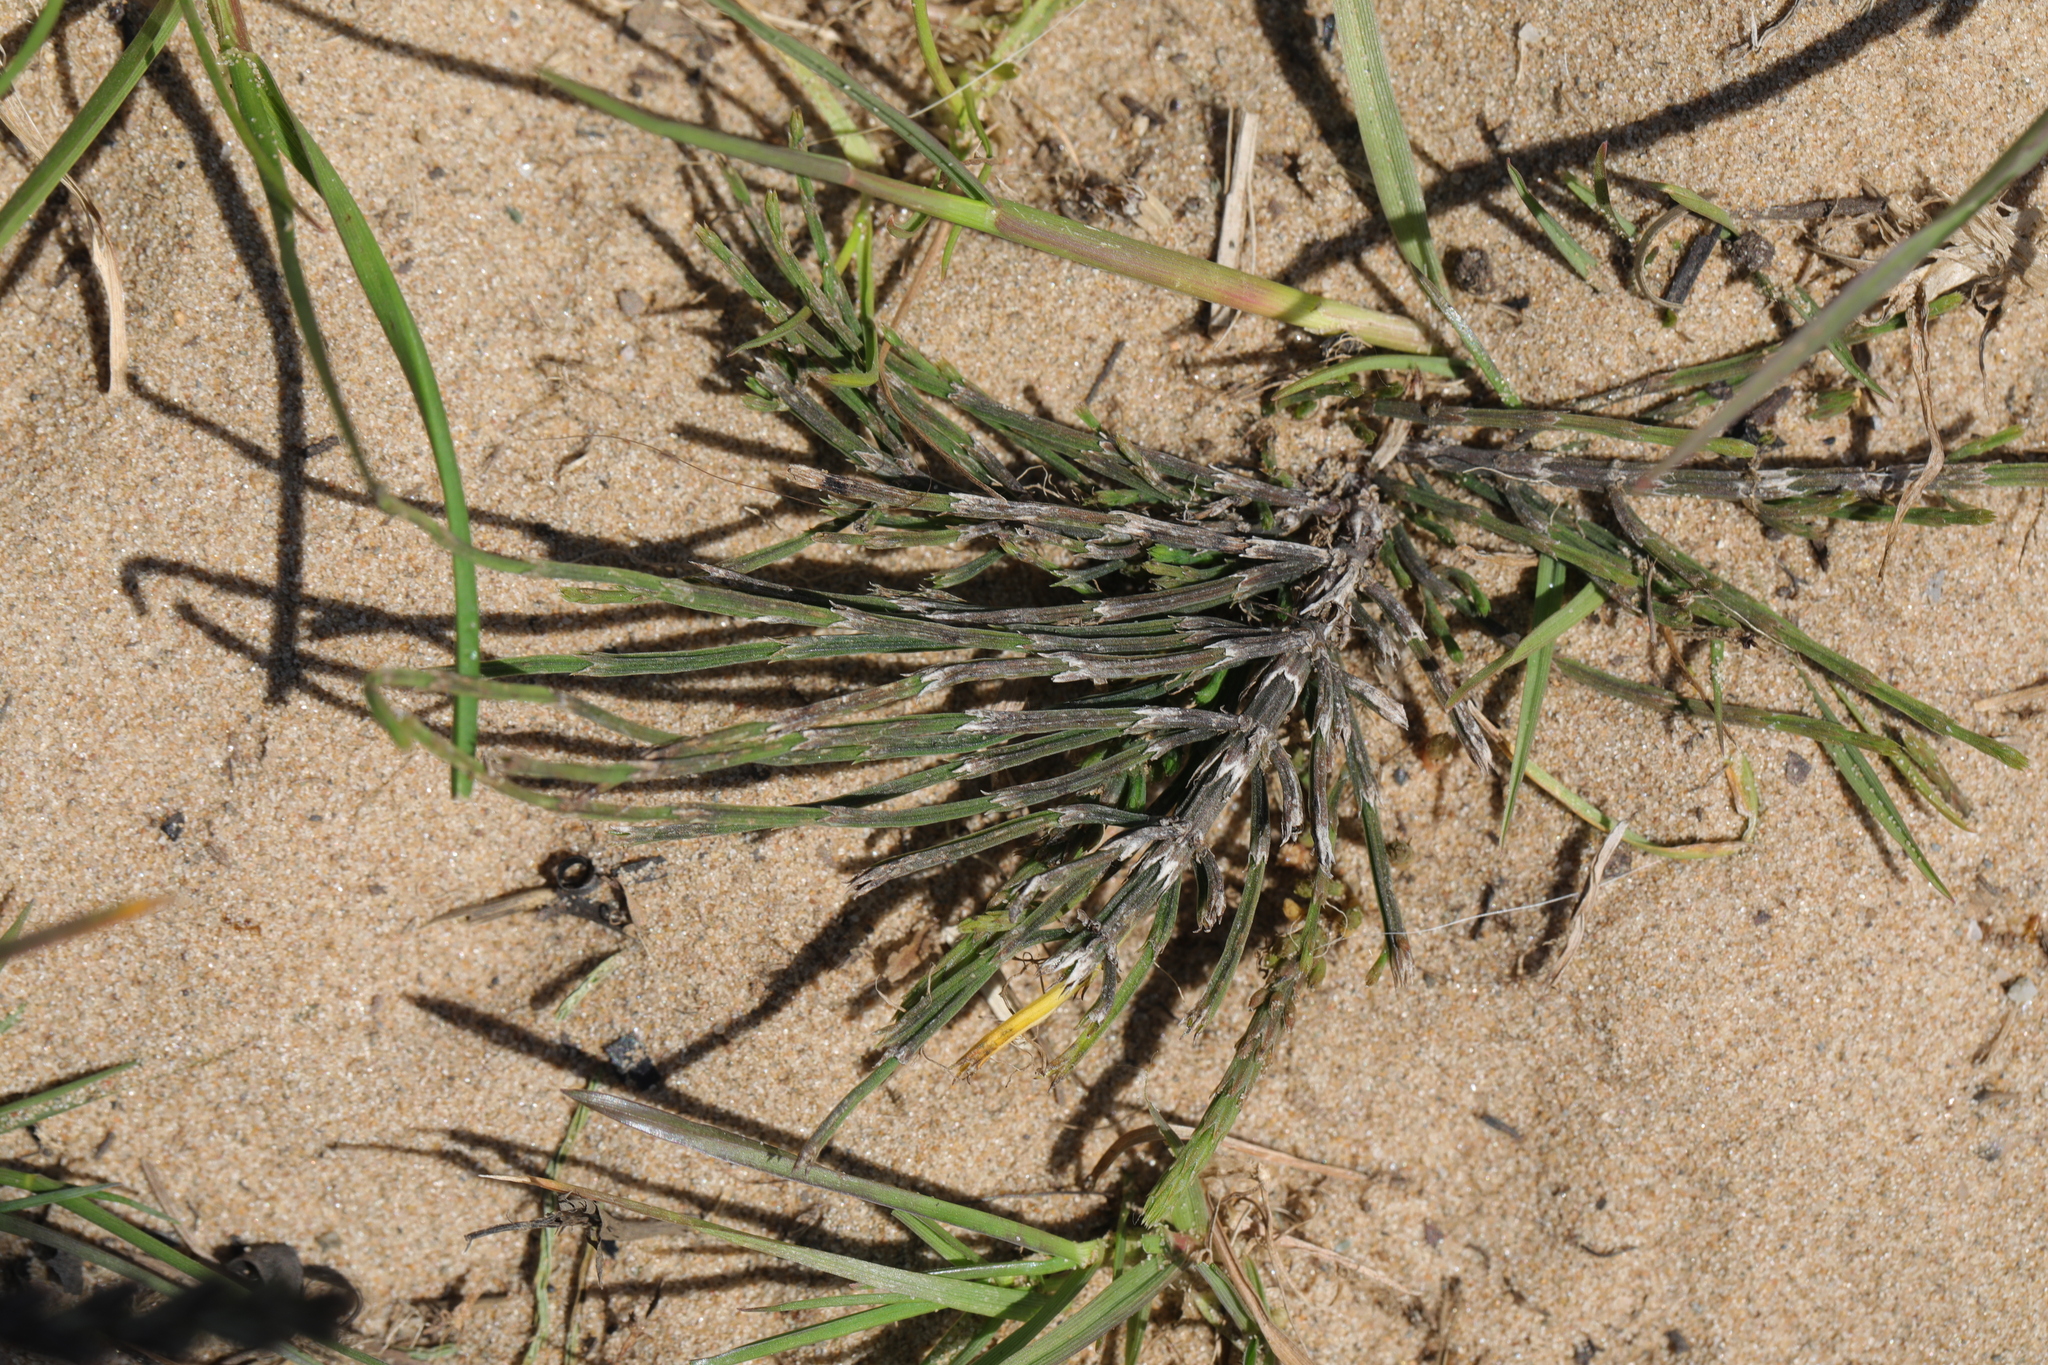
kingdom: Plantae
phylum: Tracheophyta
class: Polypodiopsida
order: Equisetales
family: Equisetaceae
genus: Equisetum
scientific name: Equisetum arvense
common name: Field horsetail
